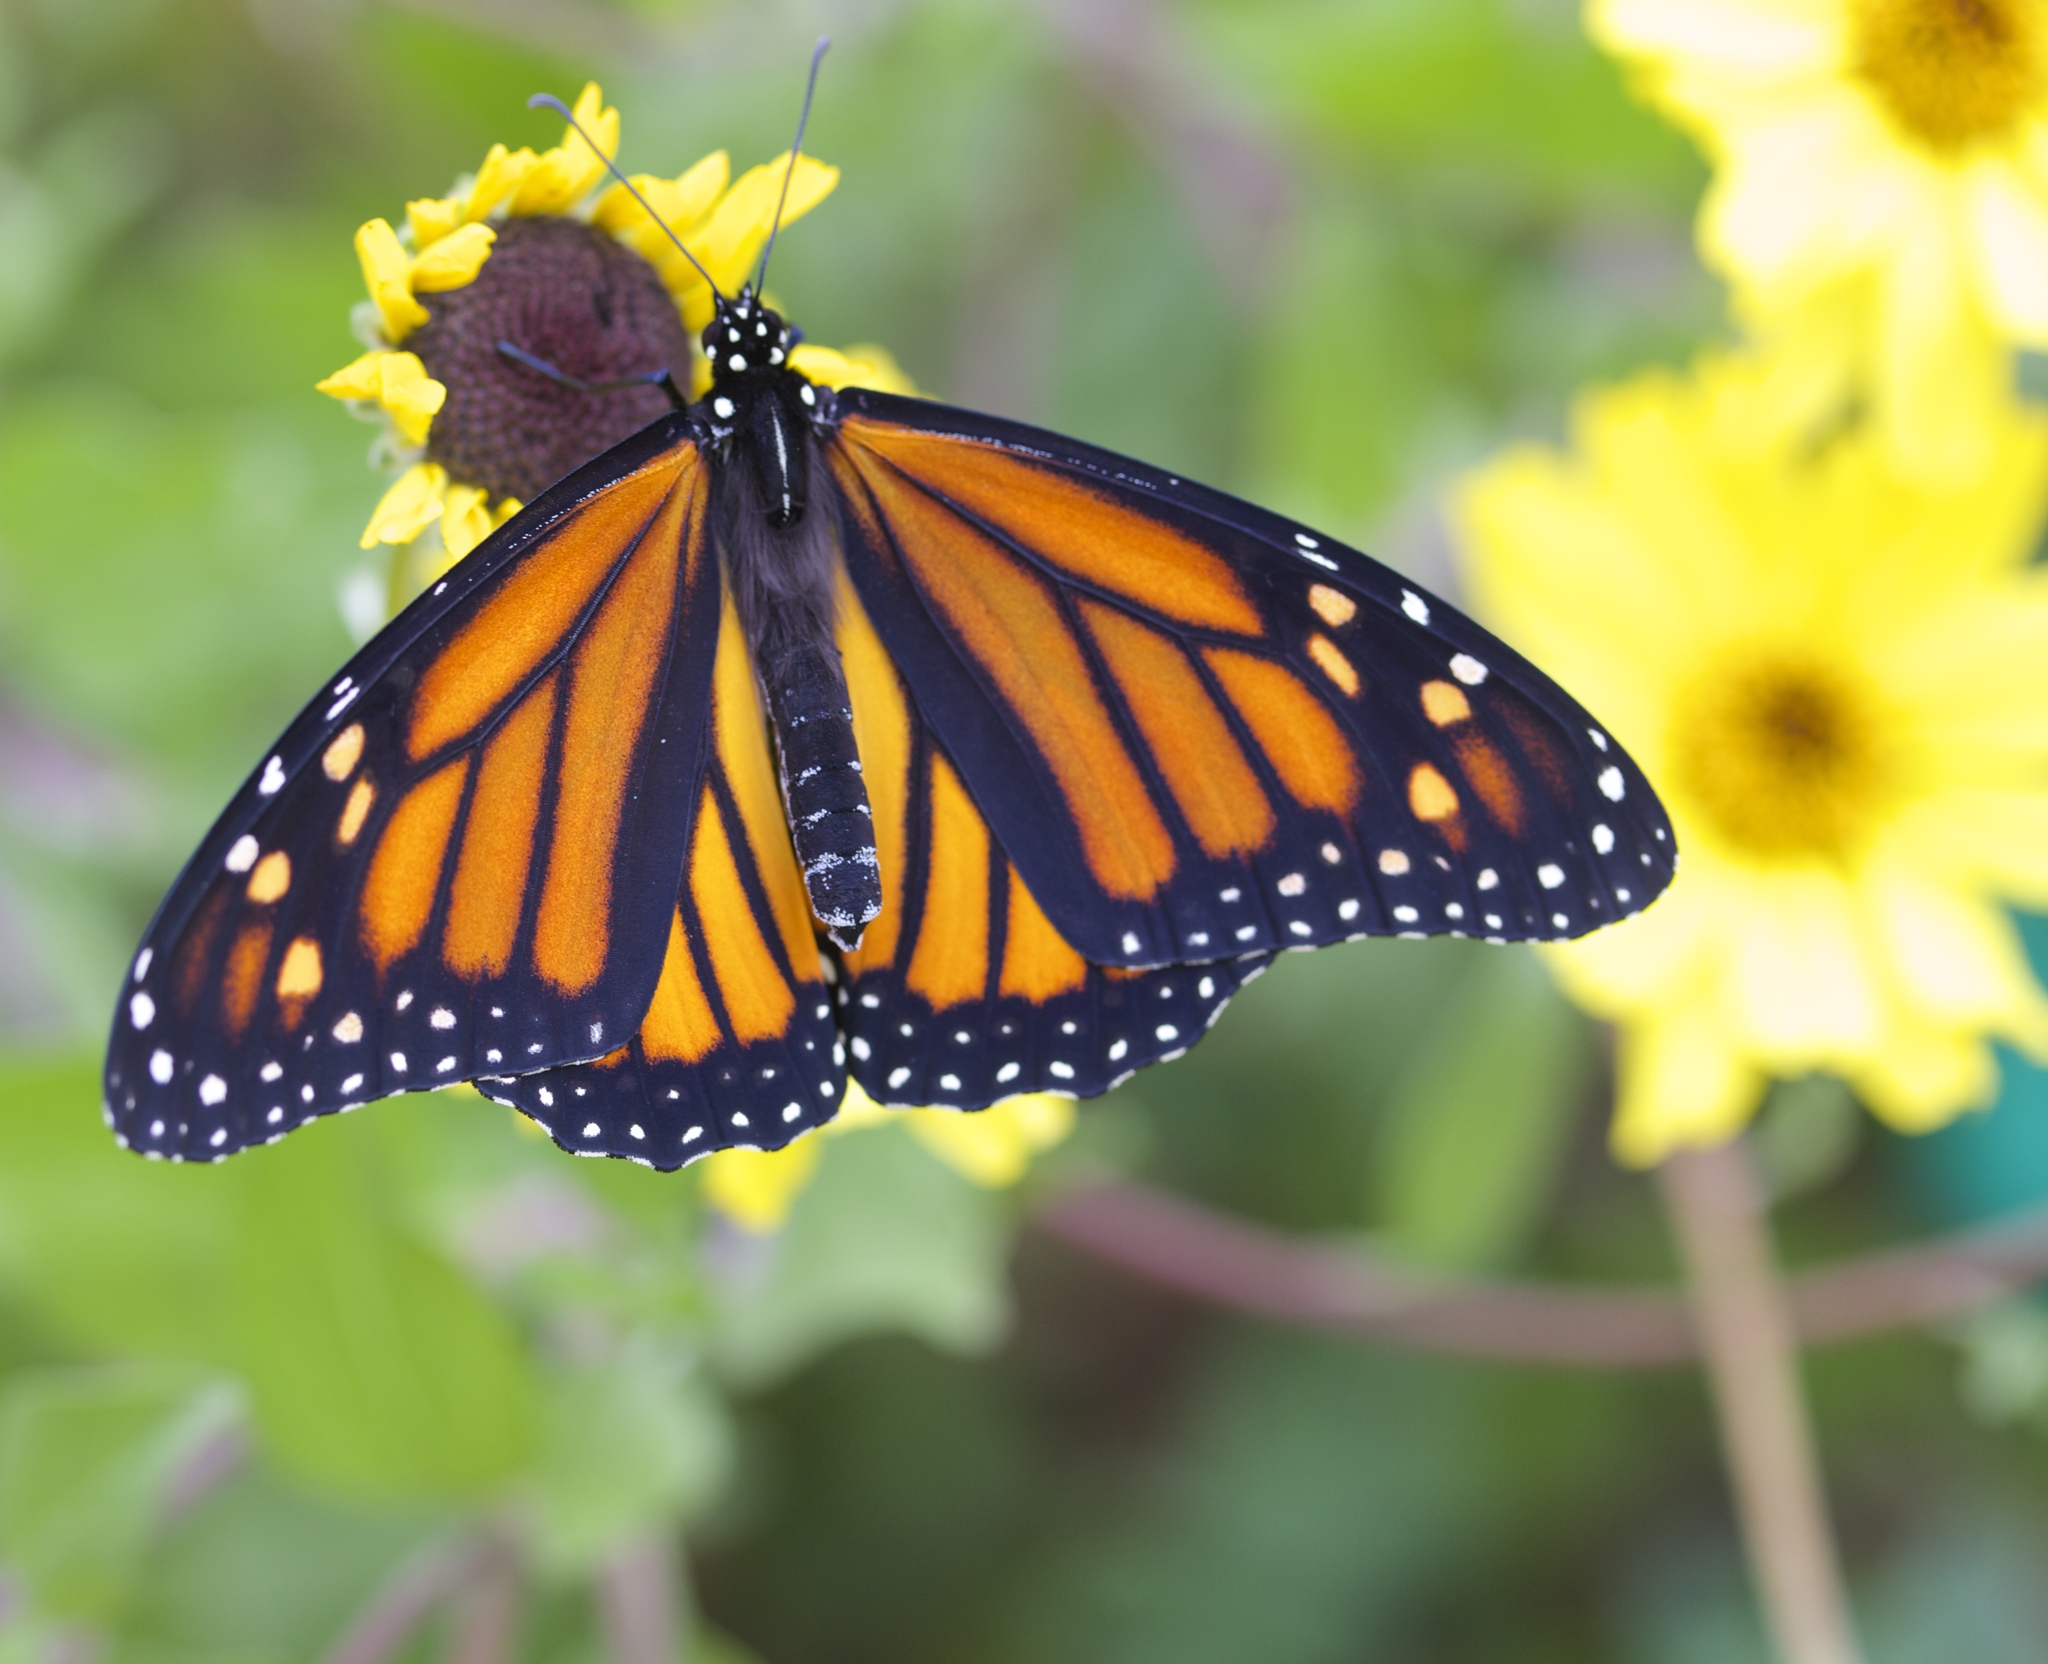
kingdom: Animalia
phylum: Arthropoda
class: Insecta
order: Lepidoptera
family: Nymphalidae
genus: Danaus
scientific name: Danaus plexippus
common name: Monarch
